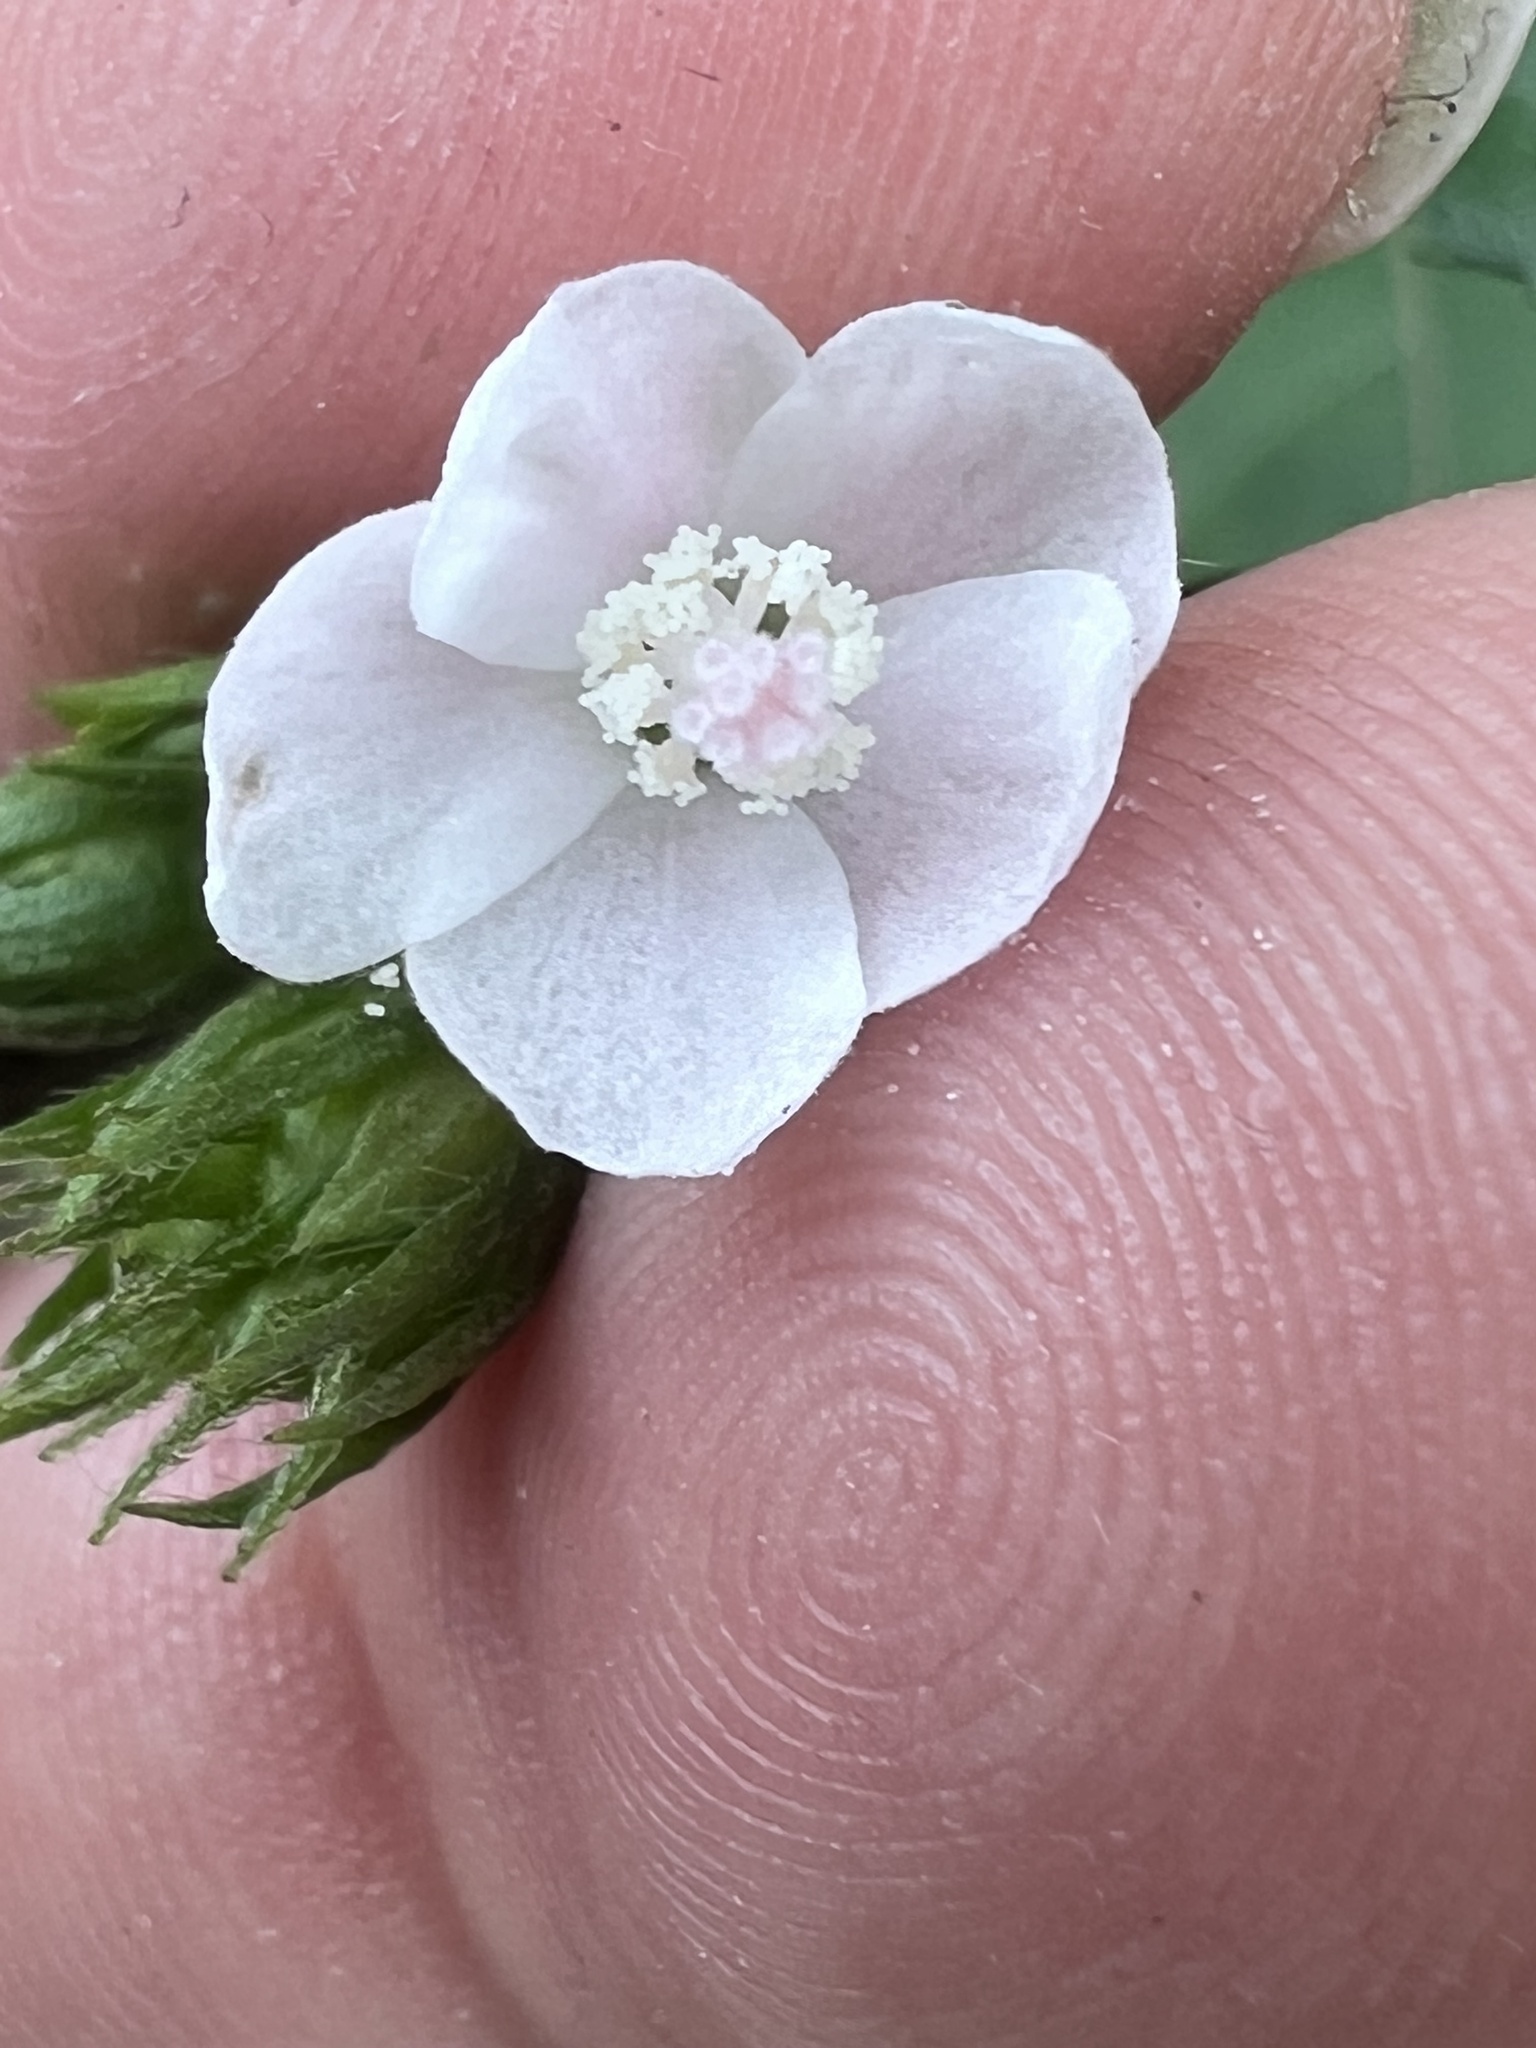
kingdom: Plantae
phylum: Tracheophyta
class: Magnoliopsida
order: Malvales
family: Malvaceae
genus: Pavonia
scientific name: Pavonia schiedeana
